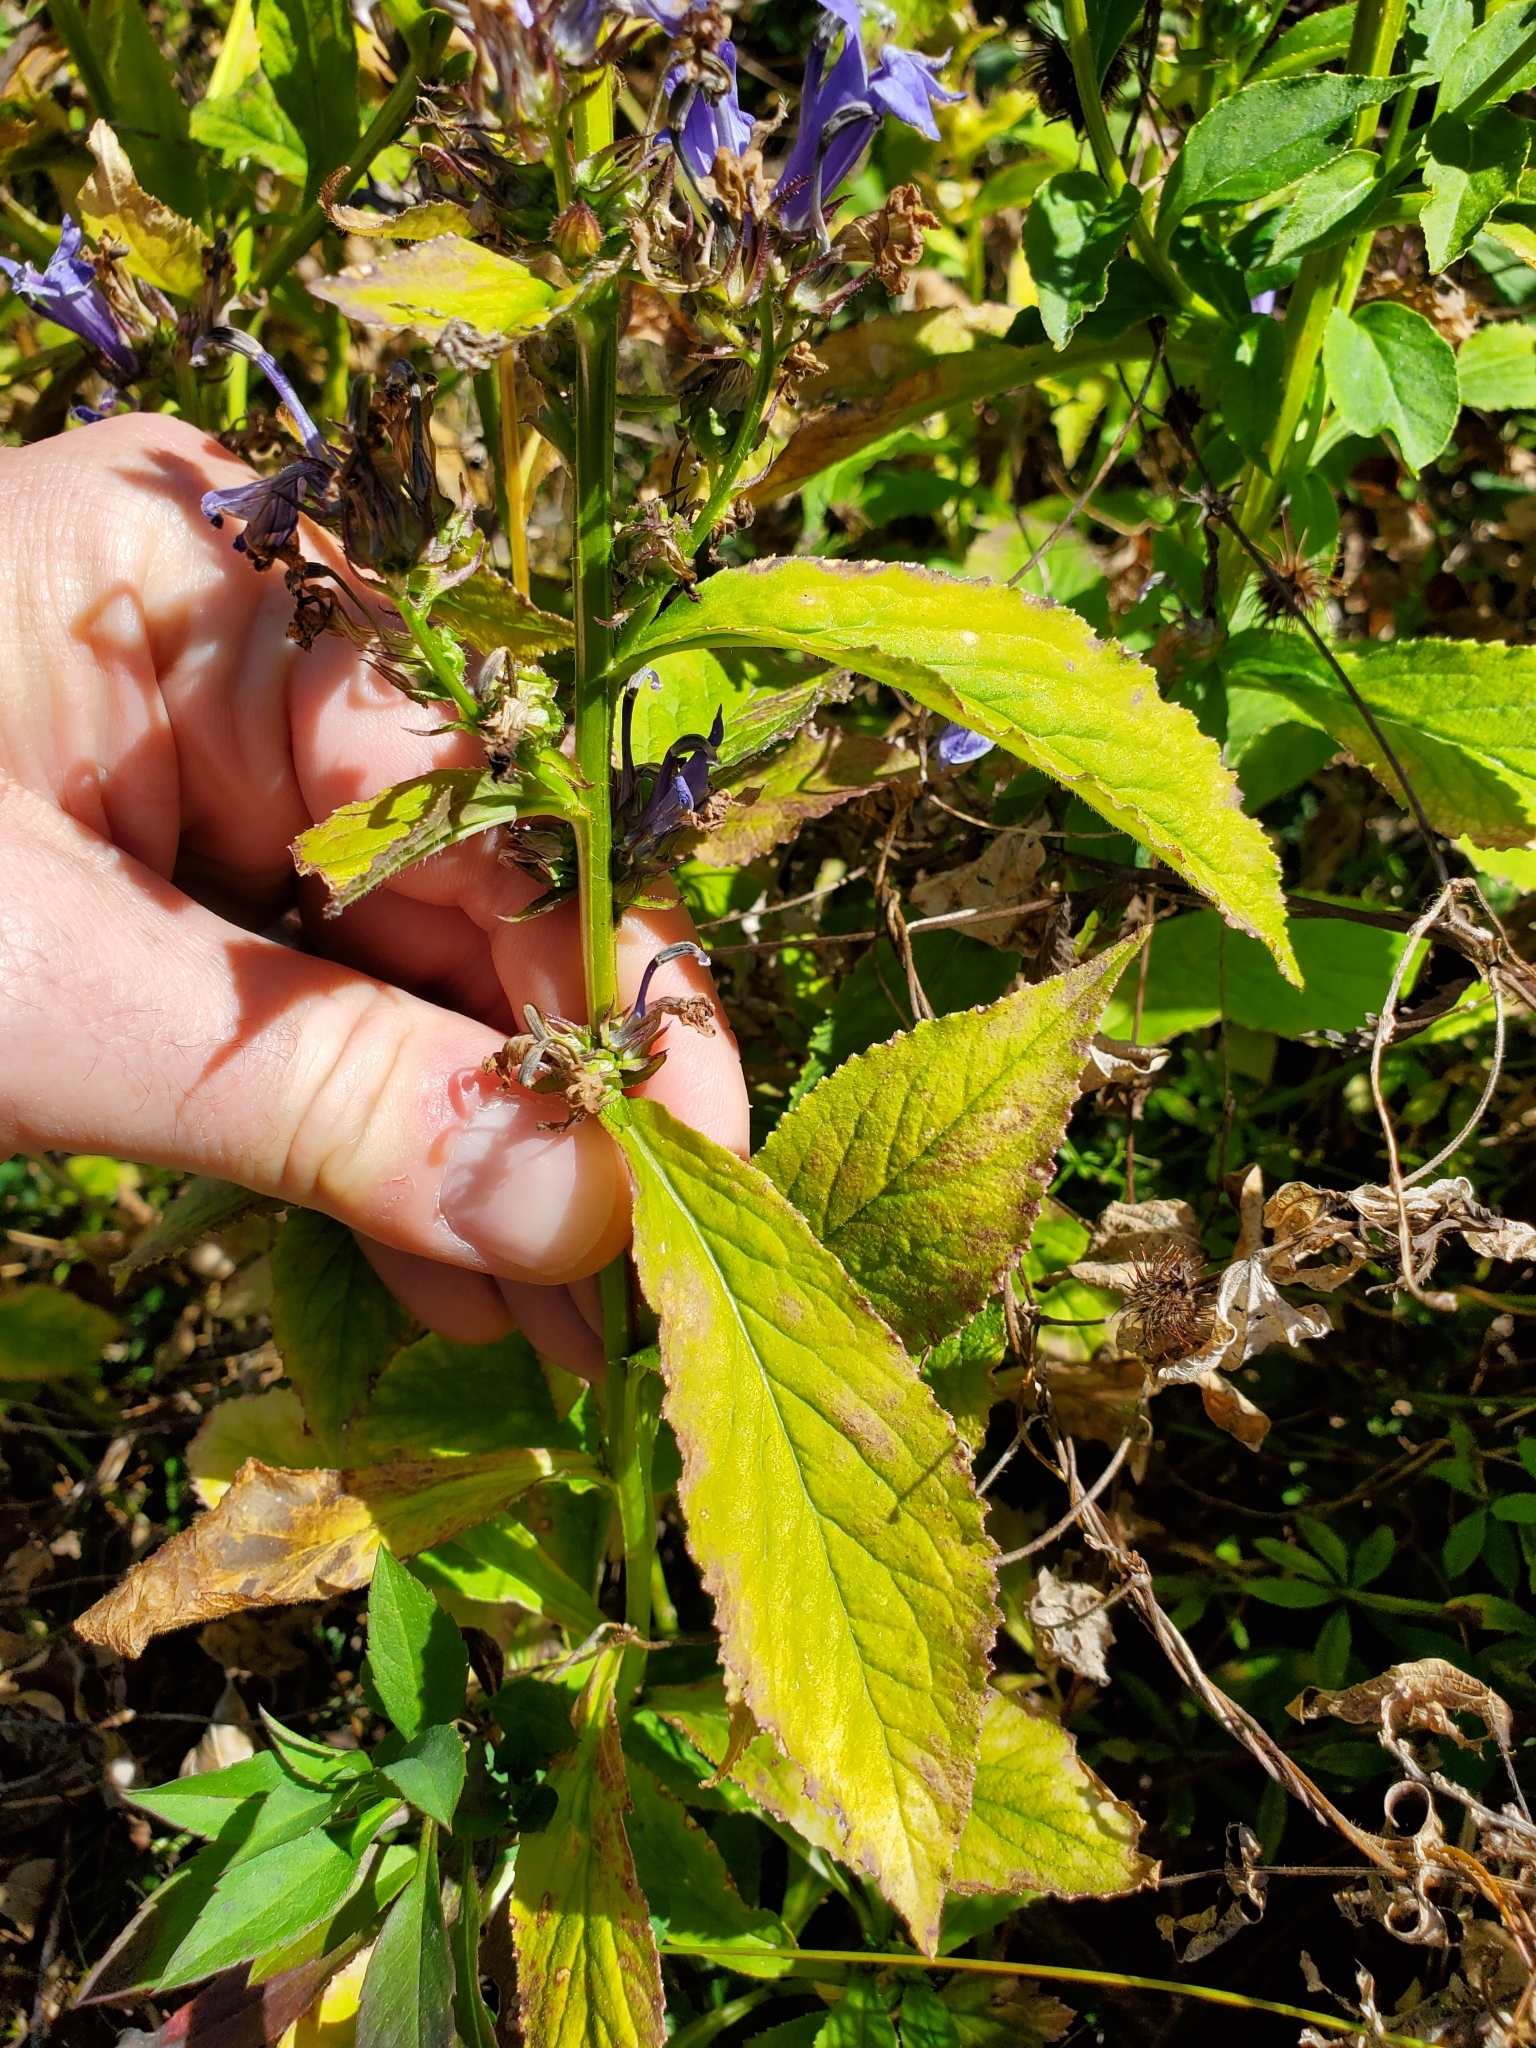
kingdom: Plantae
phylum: Tracheophyta
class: Magnoliopsida
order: Asterales
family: Campanulaceae
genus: Lobelia
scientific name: Lobelia siphilitica
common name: Great lobelia
